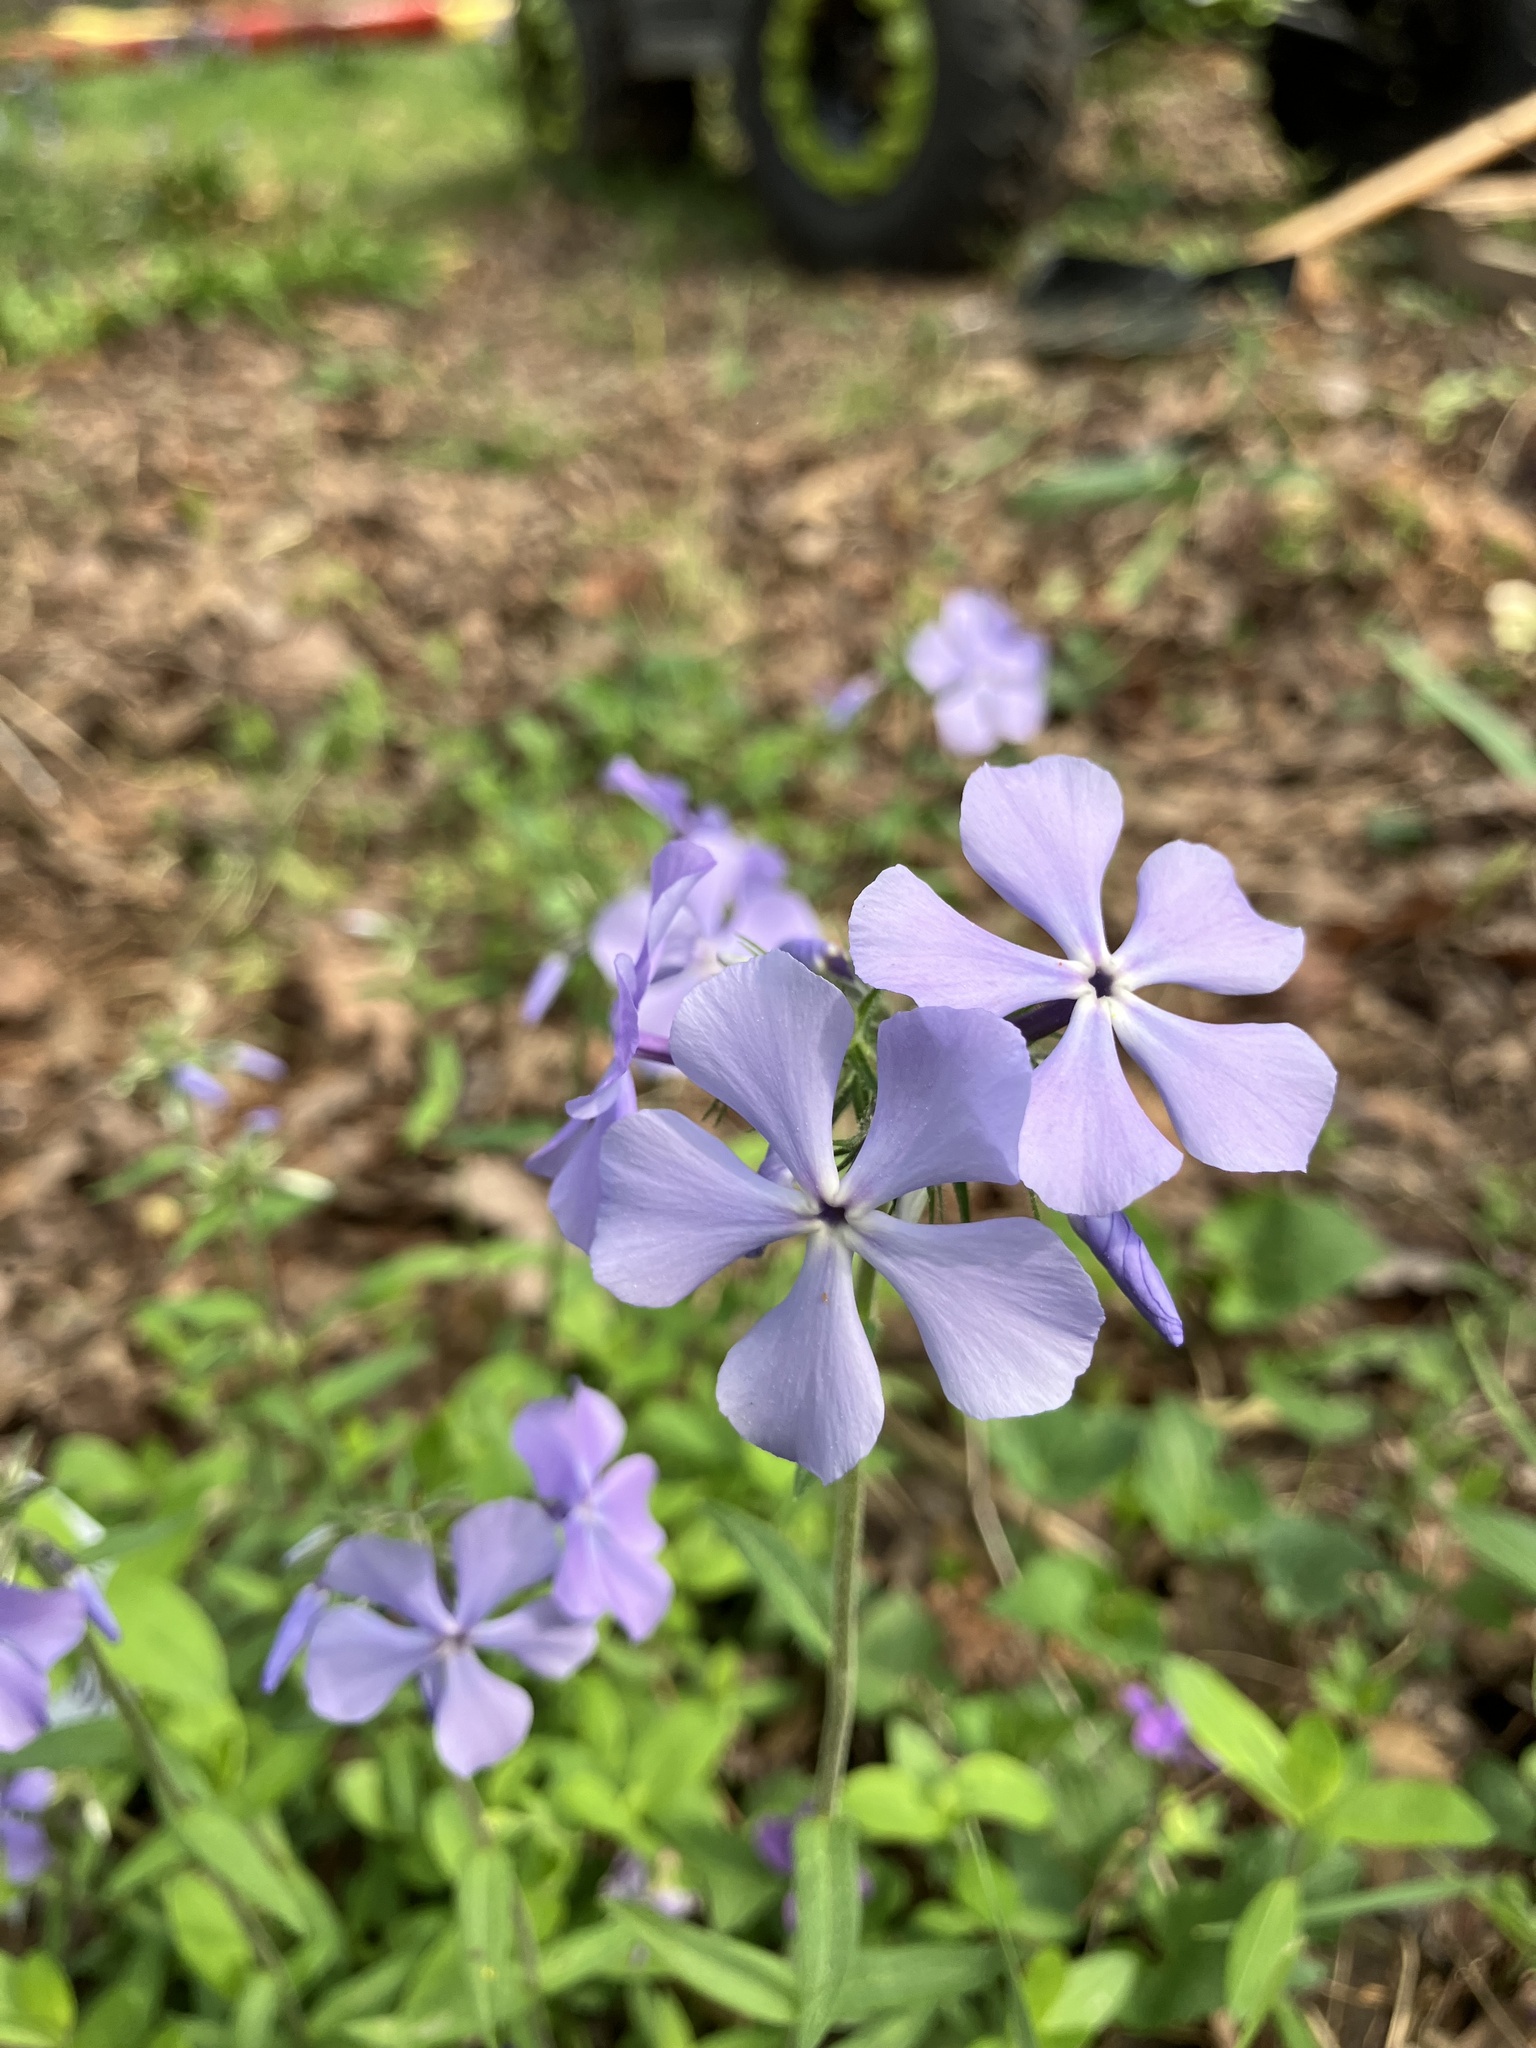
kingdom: Plantae
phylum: Tracheophyta
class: Magnoliopsida
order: Ericales
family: Polemoniaceae
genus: Phlox
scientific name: Phlox divaricata
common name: Blue phlox
